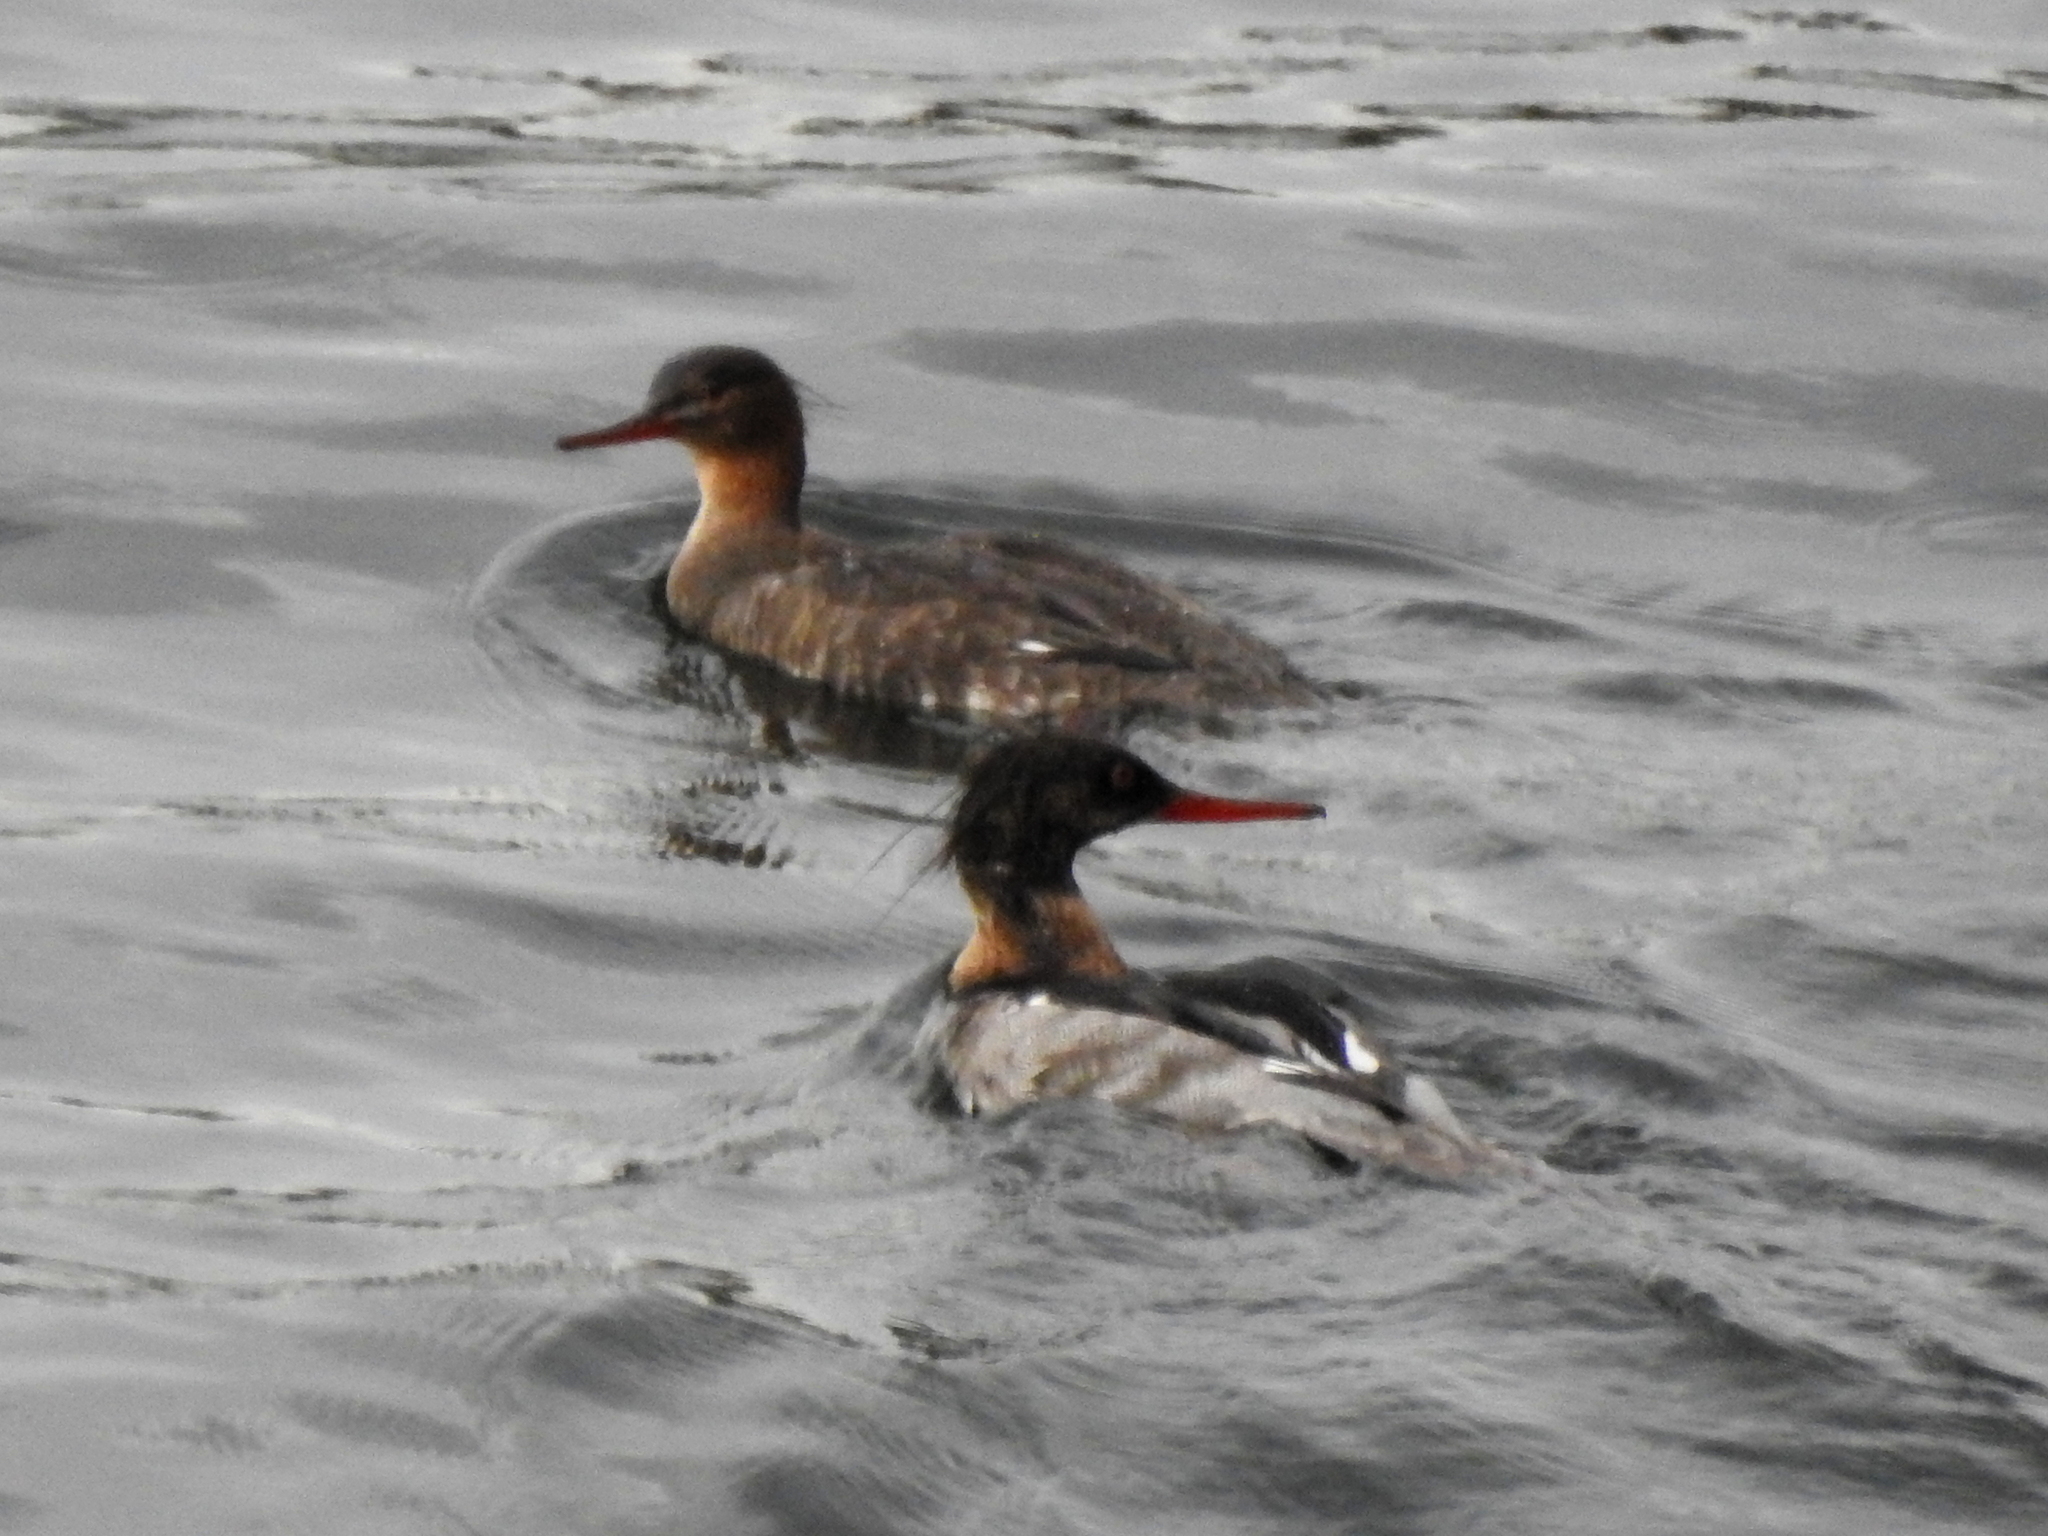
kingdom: Animalia
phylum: Chordata
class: Aves
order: Anseriformes
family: Anatidae
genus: Mergus
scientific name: Mergus serrator
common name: Red-breasted merganser
